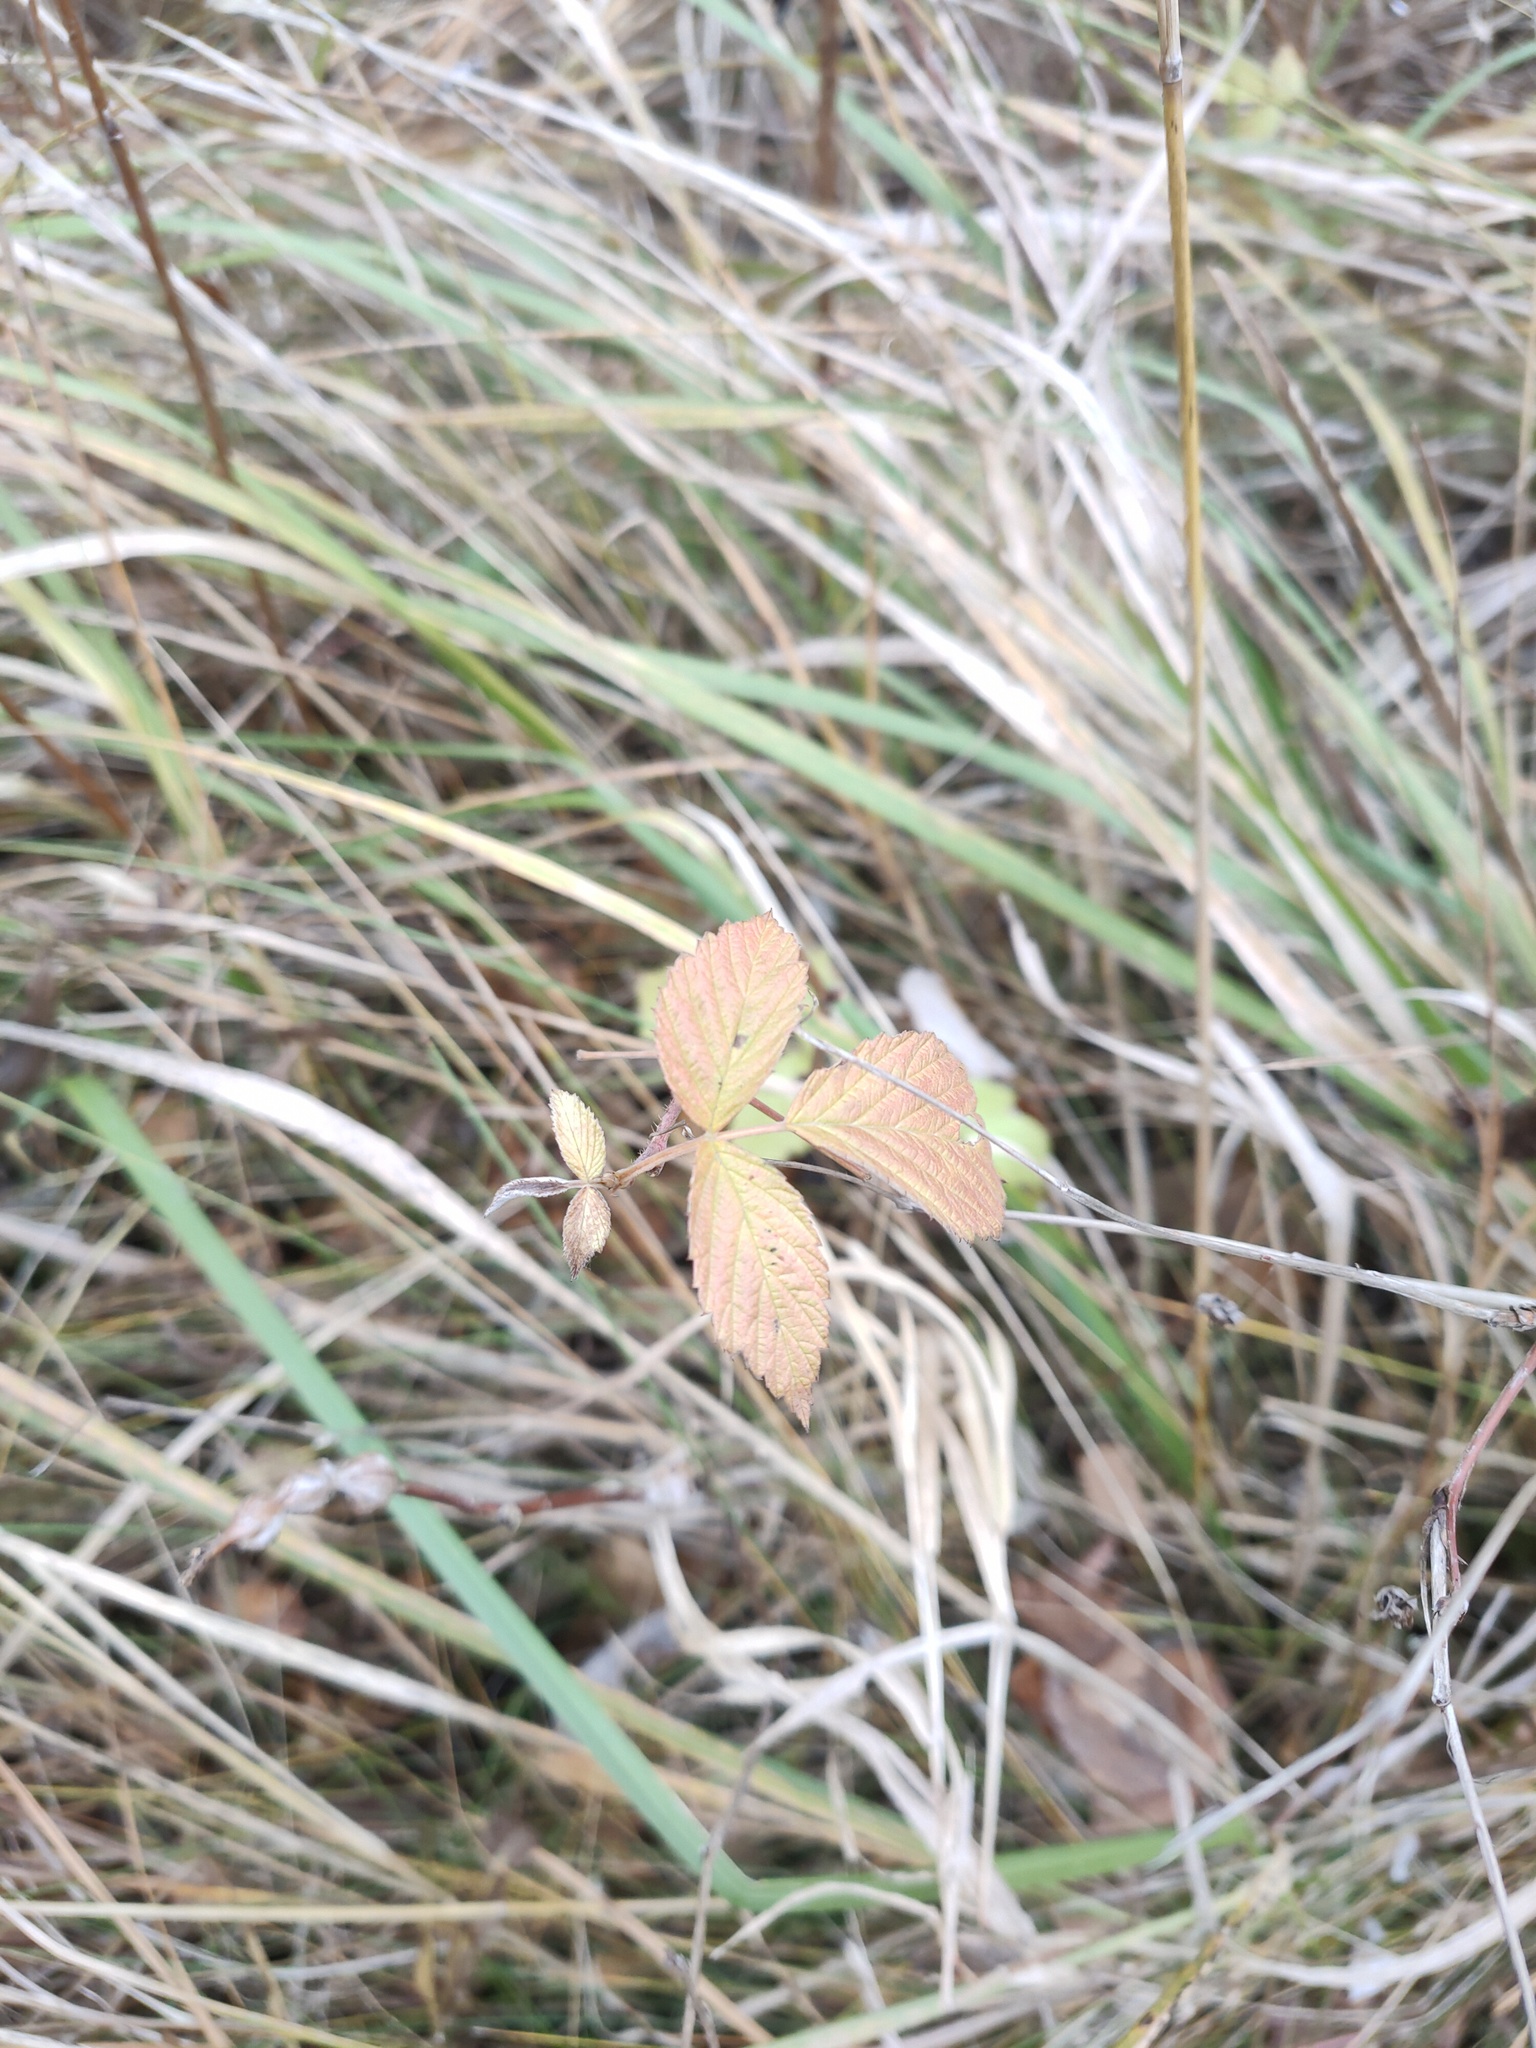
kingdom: Plantae
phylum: Tracheophyta
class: Magnoliopsida
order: Rosales
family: Rosaceae
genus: Rubus
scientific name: Rubus idaeus
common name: Raspberry
